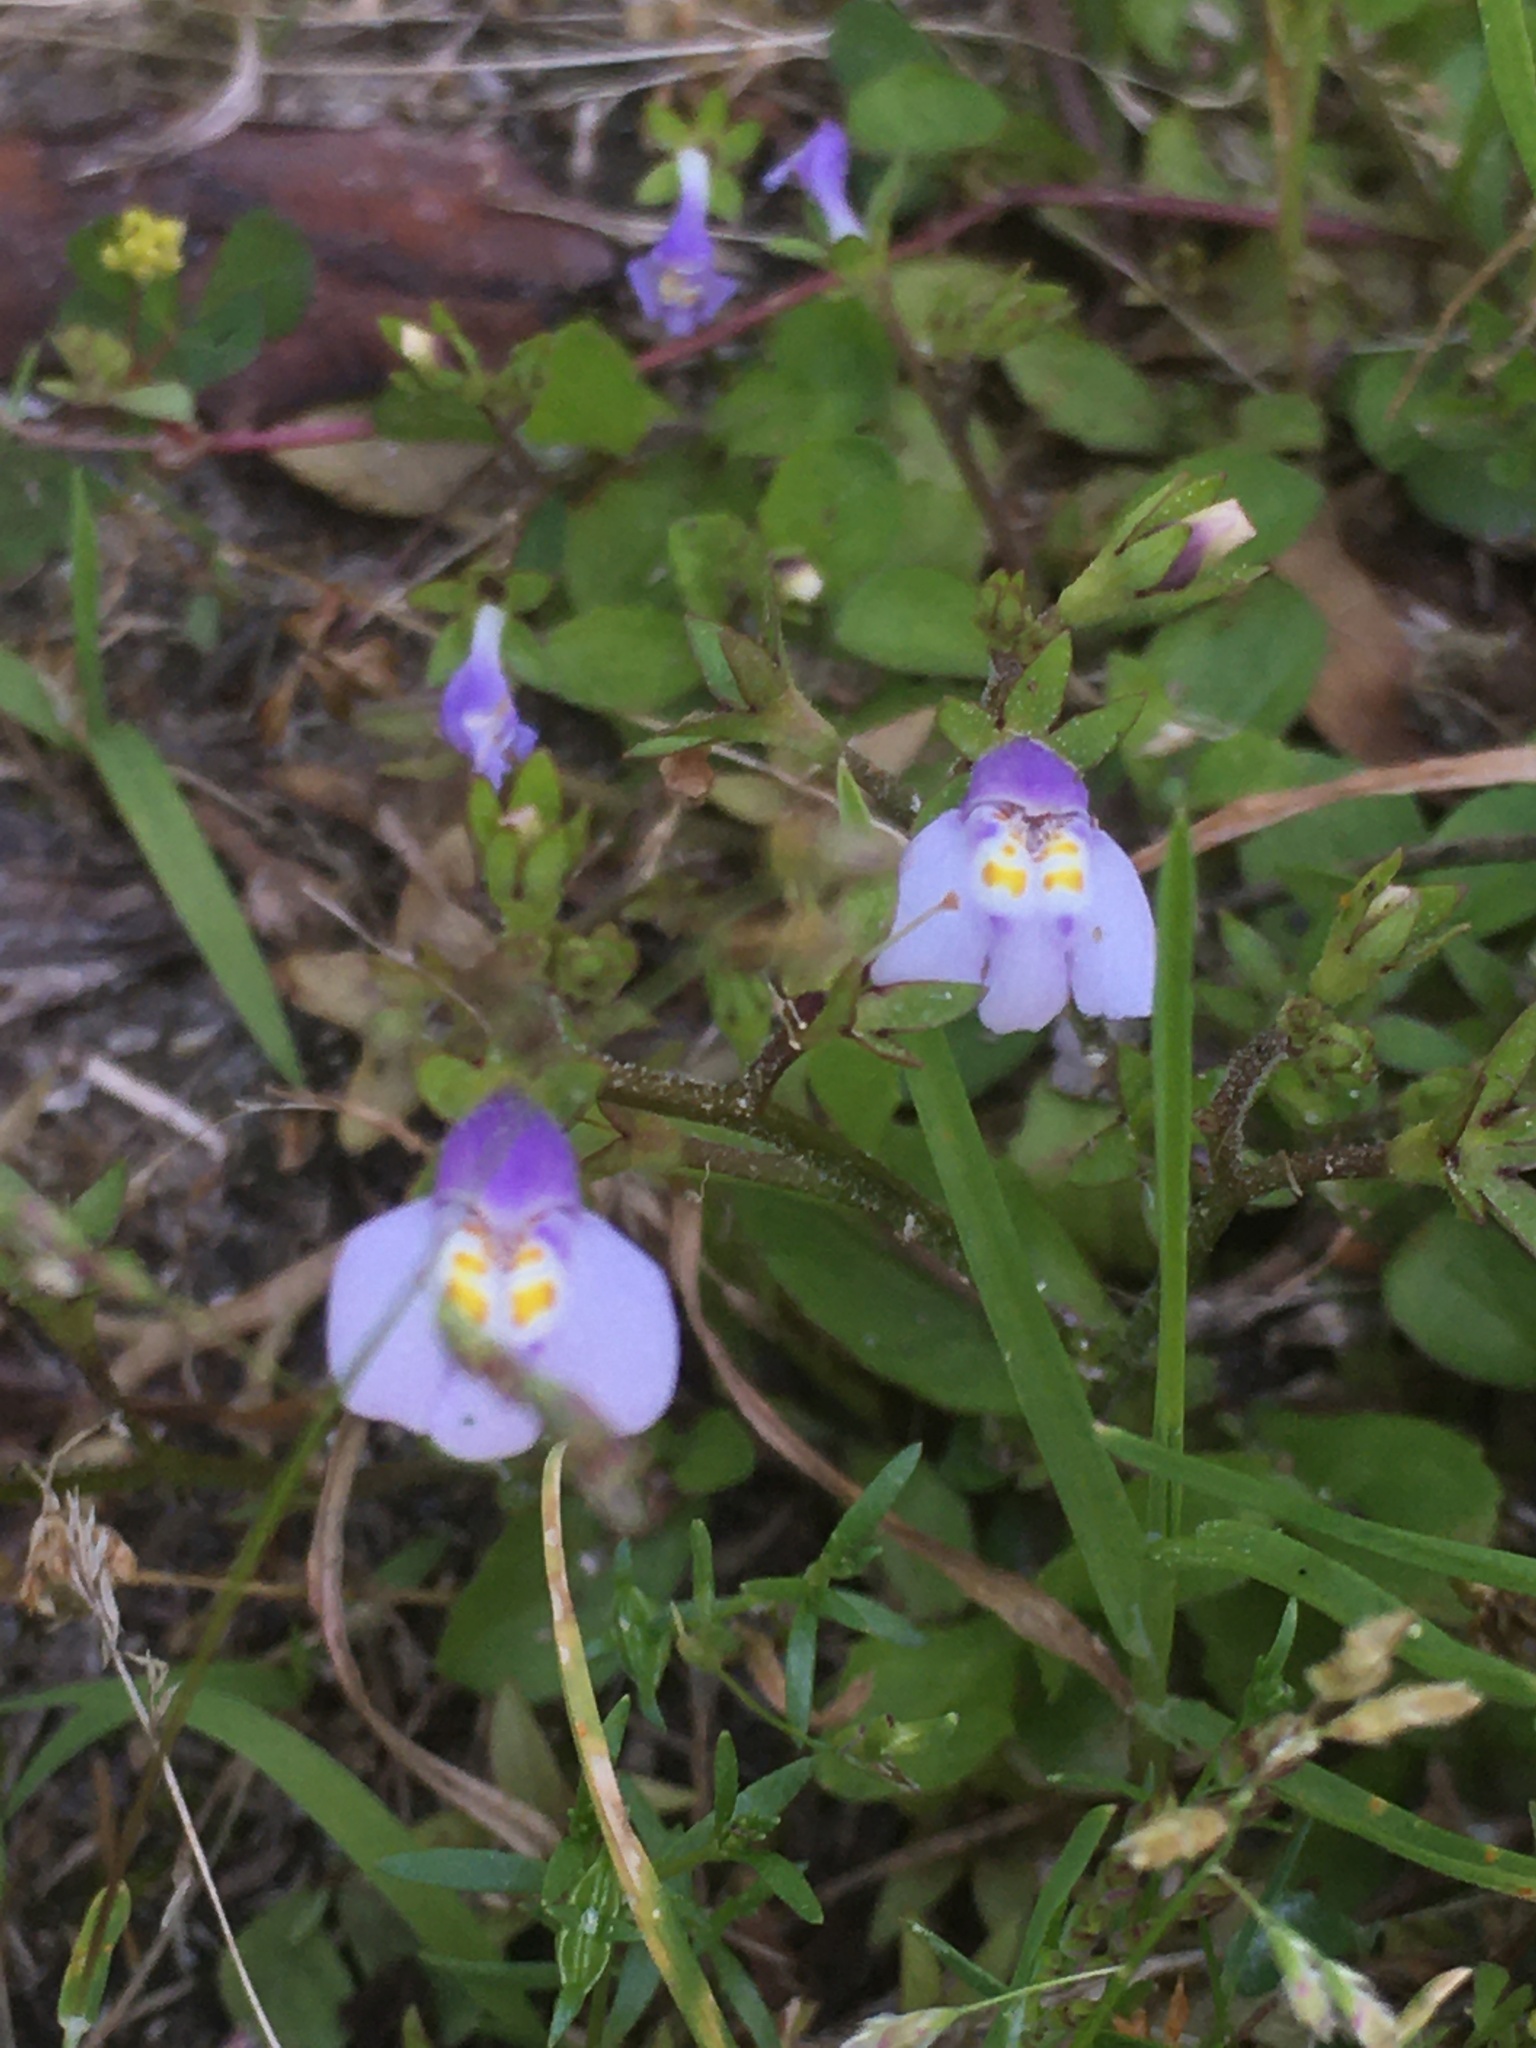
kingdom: Plantae
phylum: Tracheophyta
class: Magnoliopsida
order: Lamiales
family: Mazaceae
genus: Mazus
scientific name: Mazus pumilus
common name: Japanese mazus
